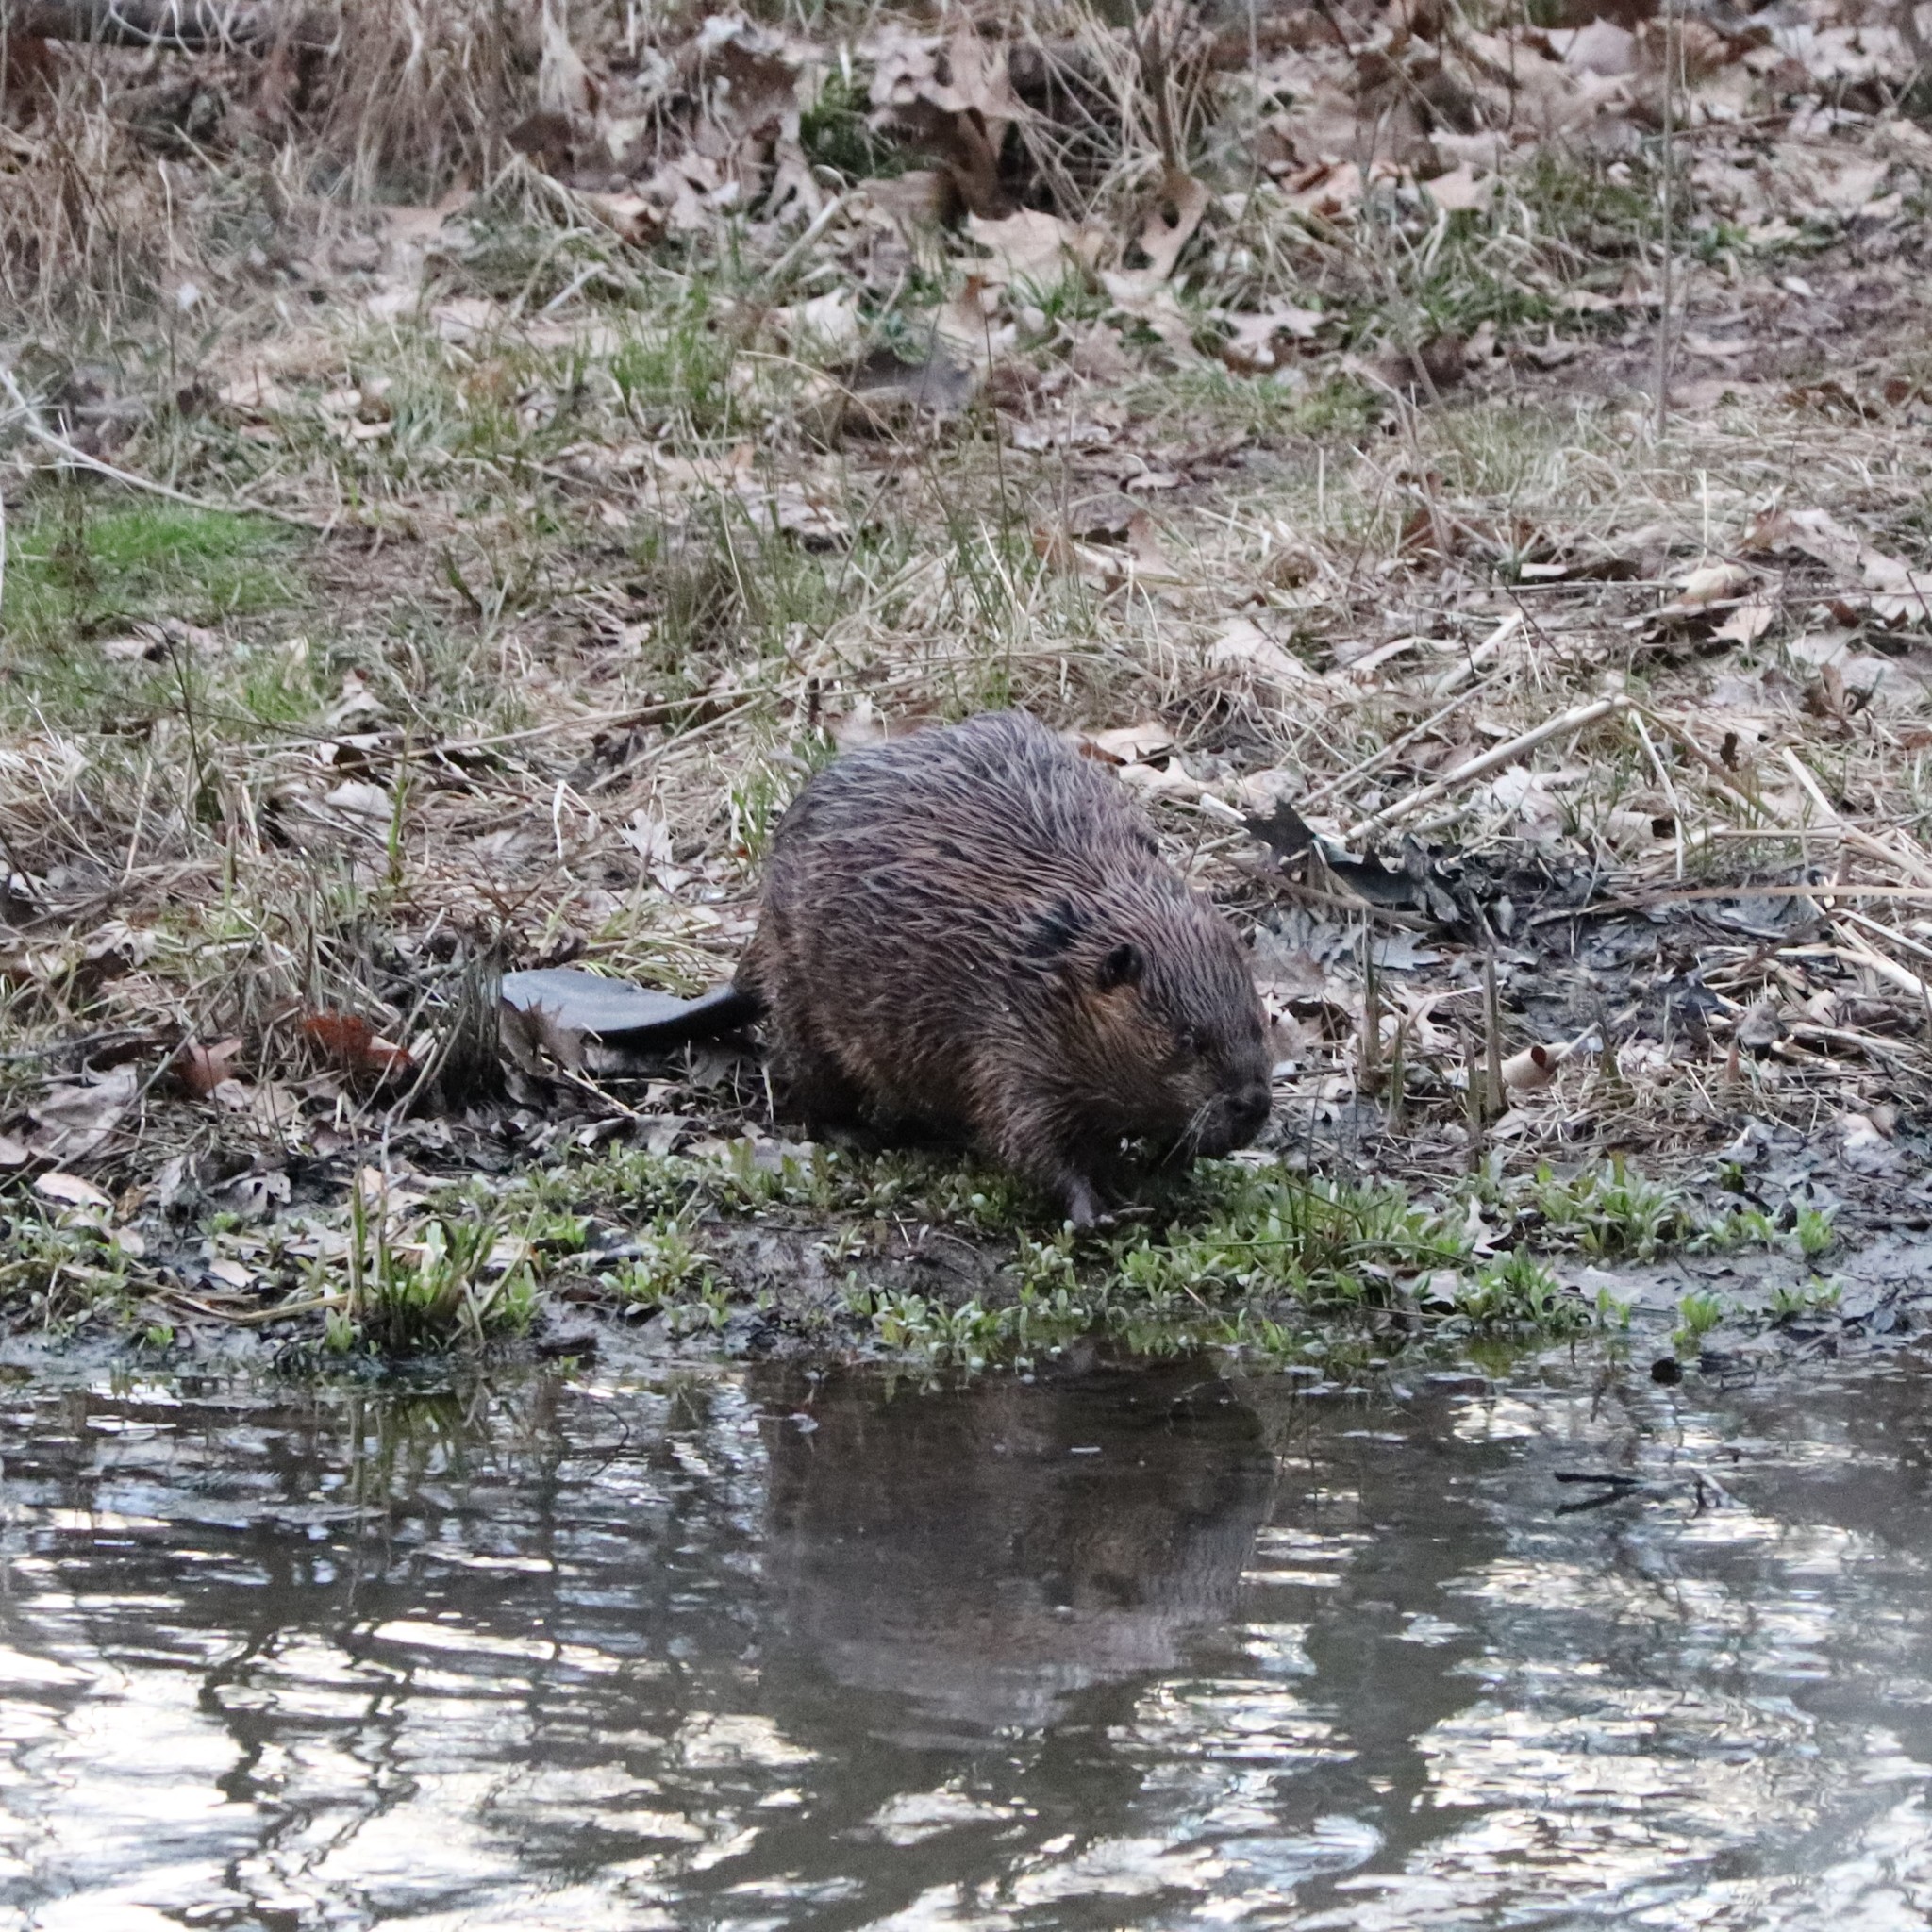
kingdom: Animalia
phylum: Chordata
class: Mammalia
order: Rodentia
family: Castoridae
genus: Castor
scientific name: Castor canadensis
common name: American beaver
